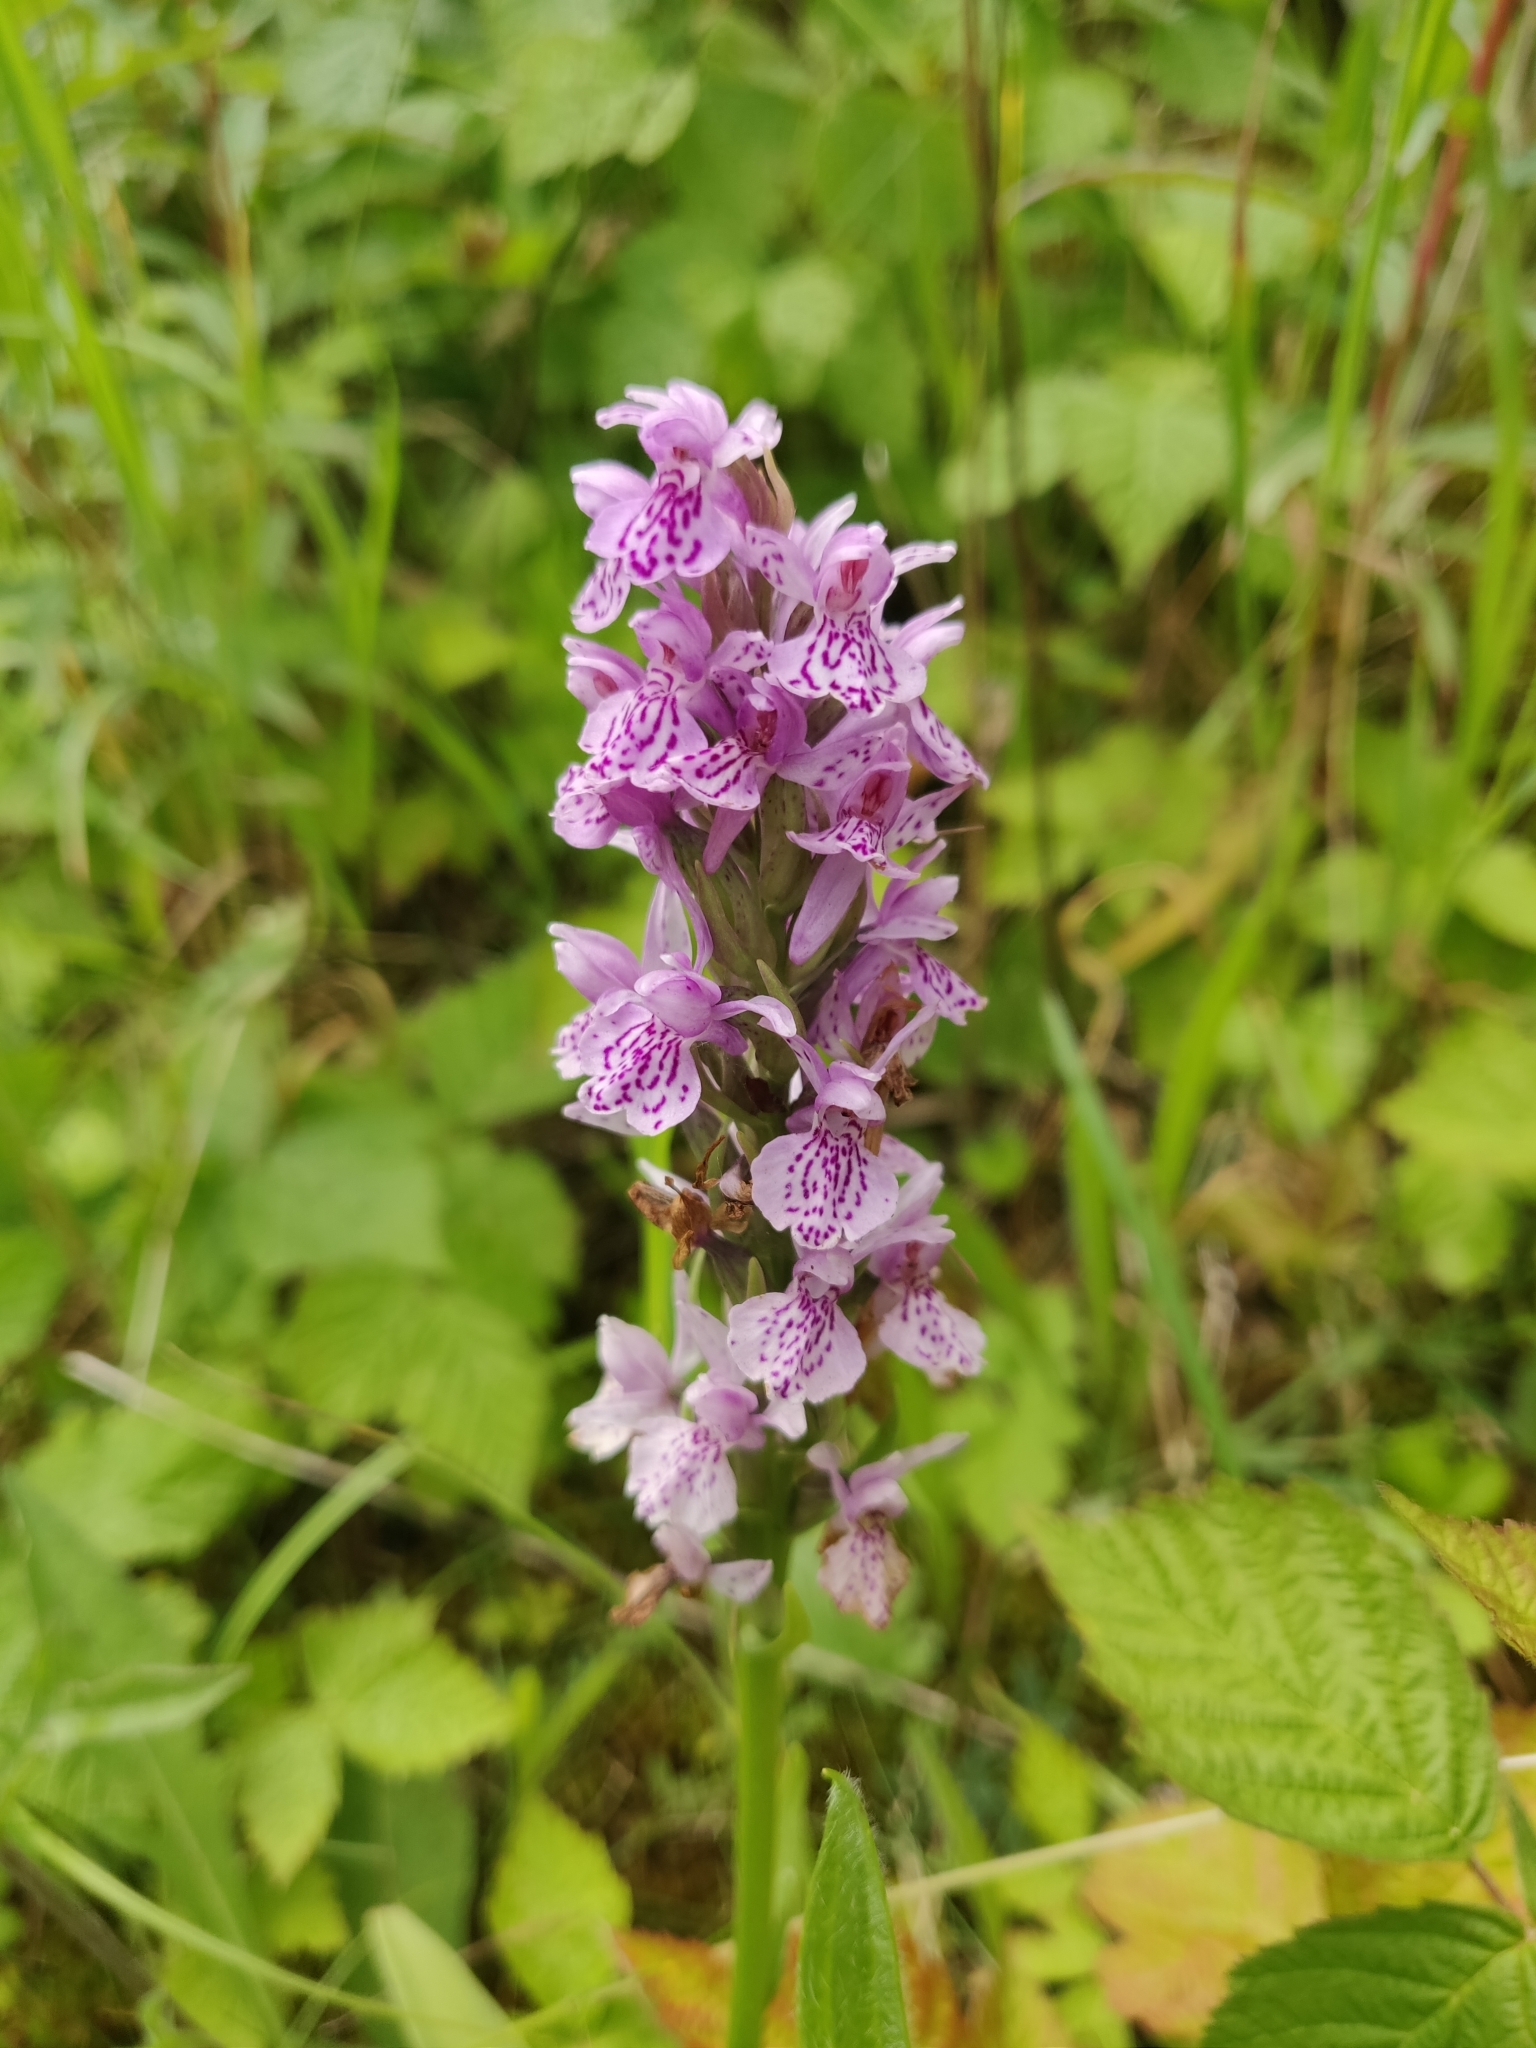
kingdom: Plantae
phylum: Tracheophyta
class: Liliopsida
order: Asparagales
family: Orchidaceae
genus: Dactylorhiza
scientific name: Dactylorhiza maculata
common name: Heath spotted-orchid
